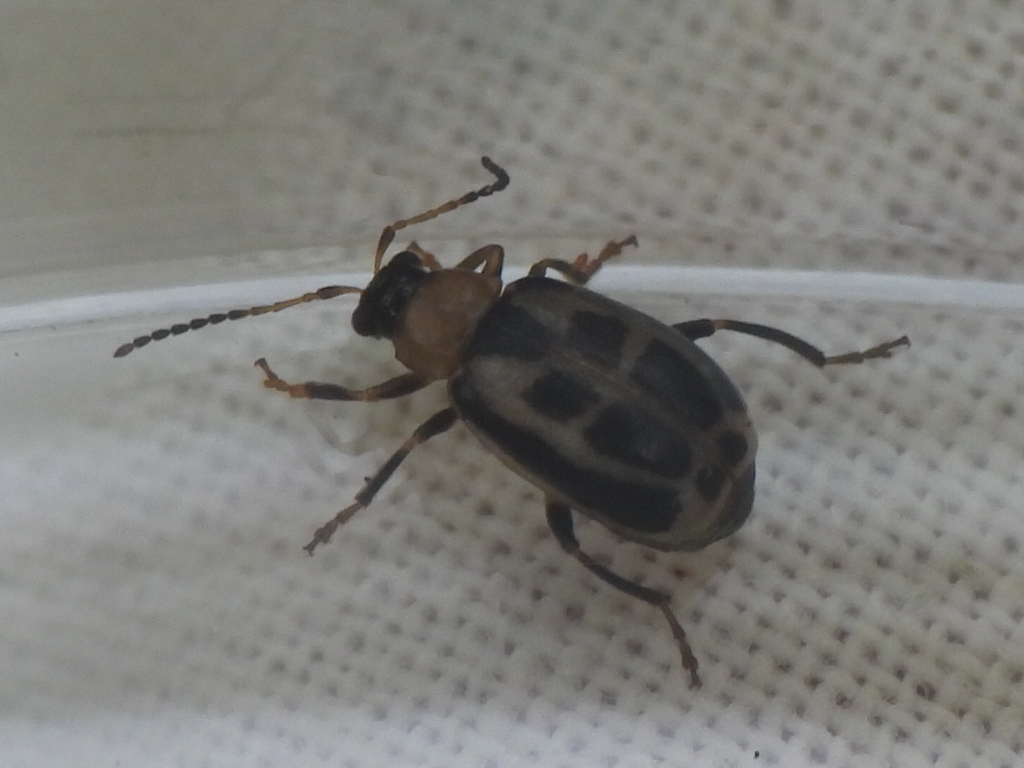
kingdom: Animalia
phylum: Arthropoda
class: Insecta
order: Coleoptera
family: Chrysomelidae
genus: Cerotoma
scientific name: Cerotoma trifurcata
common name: Bean leaf beetle
